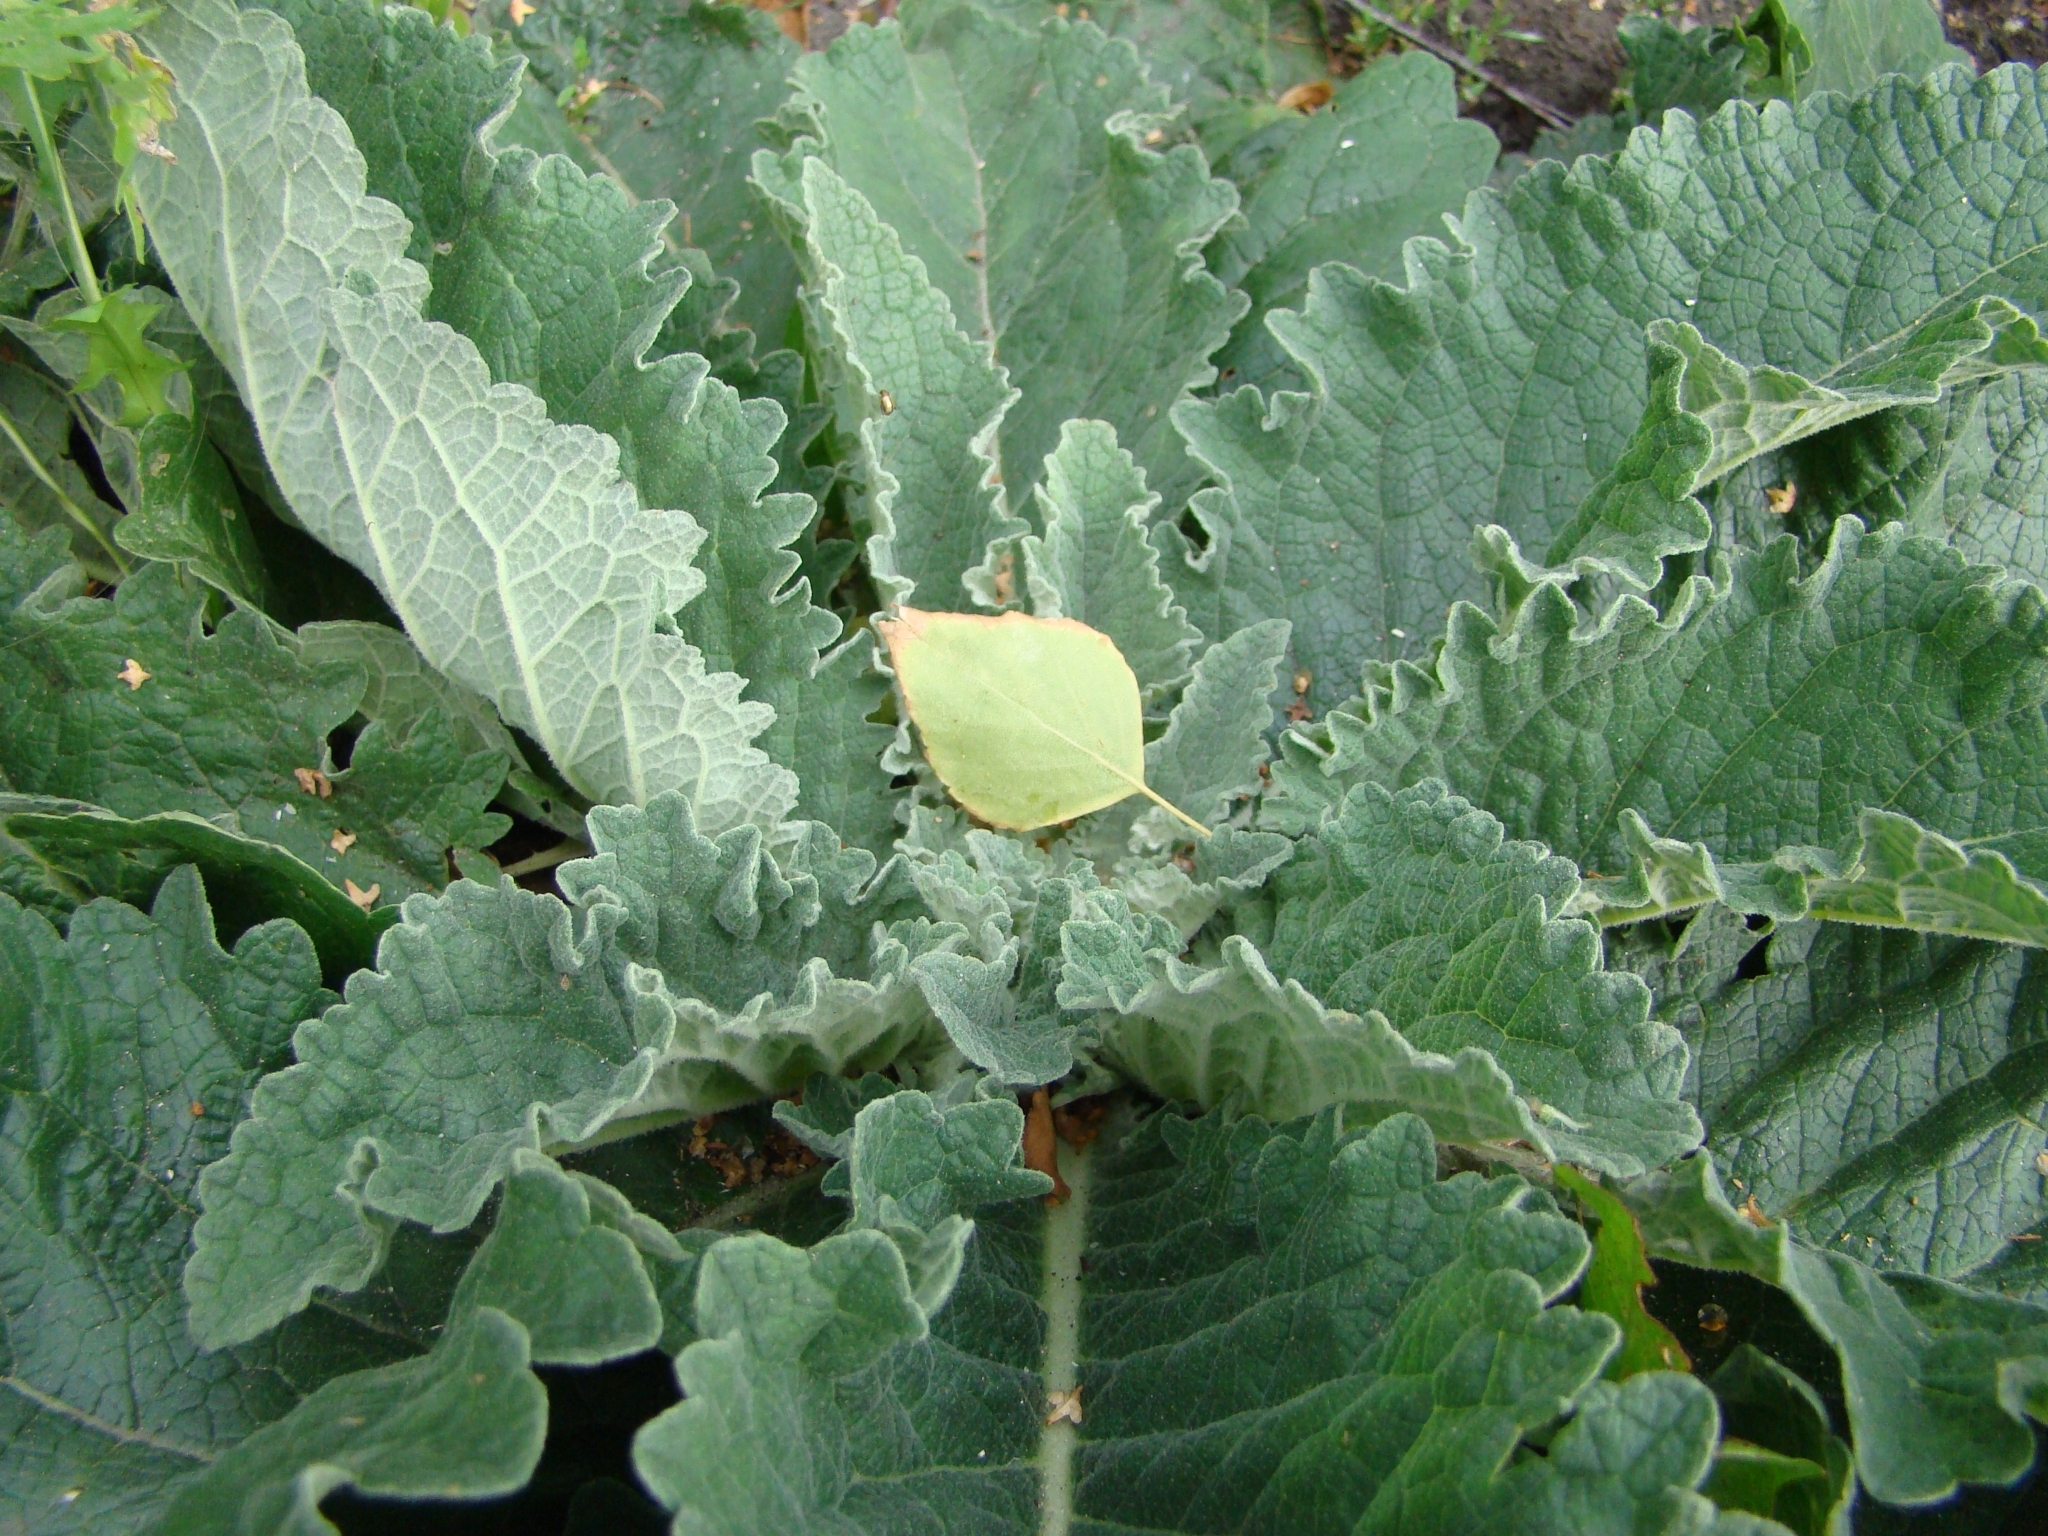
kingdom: Plantae
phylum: Tracheophyta
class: Magnoliopsida
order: Lamiales
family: Scrophulariaceae
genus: Verbascum
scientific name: Verbascum lychnitis
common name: White mullein
